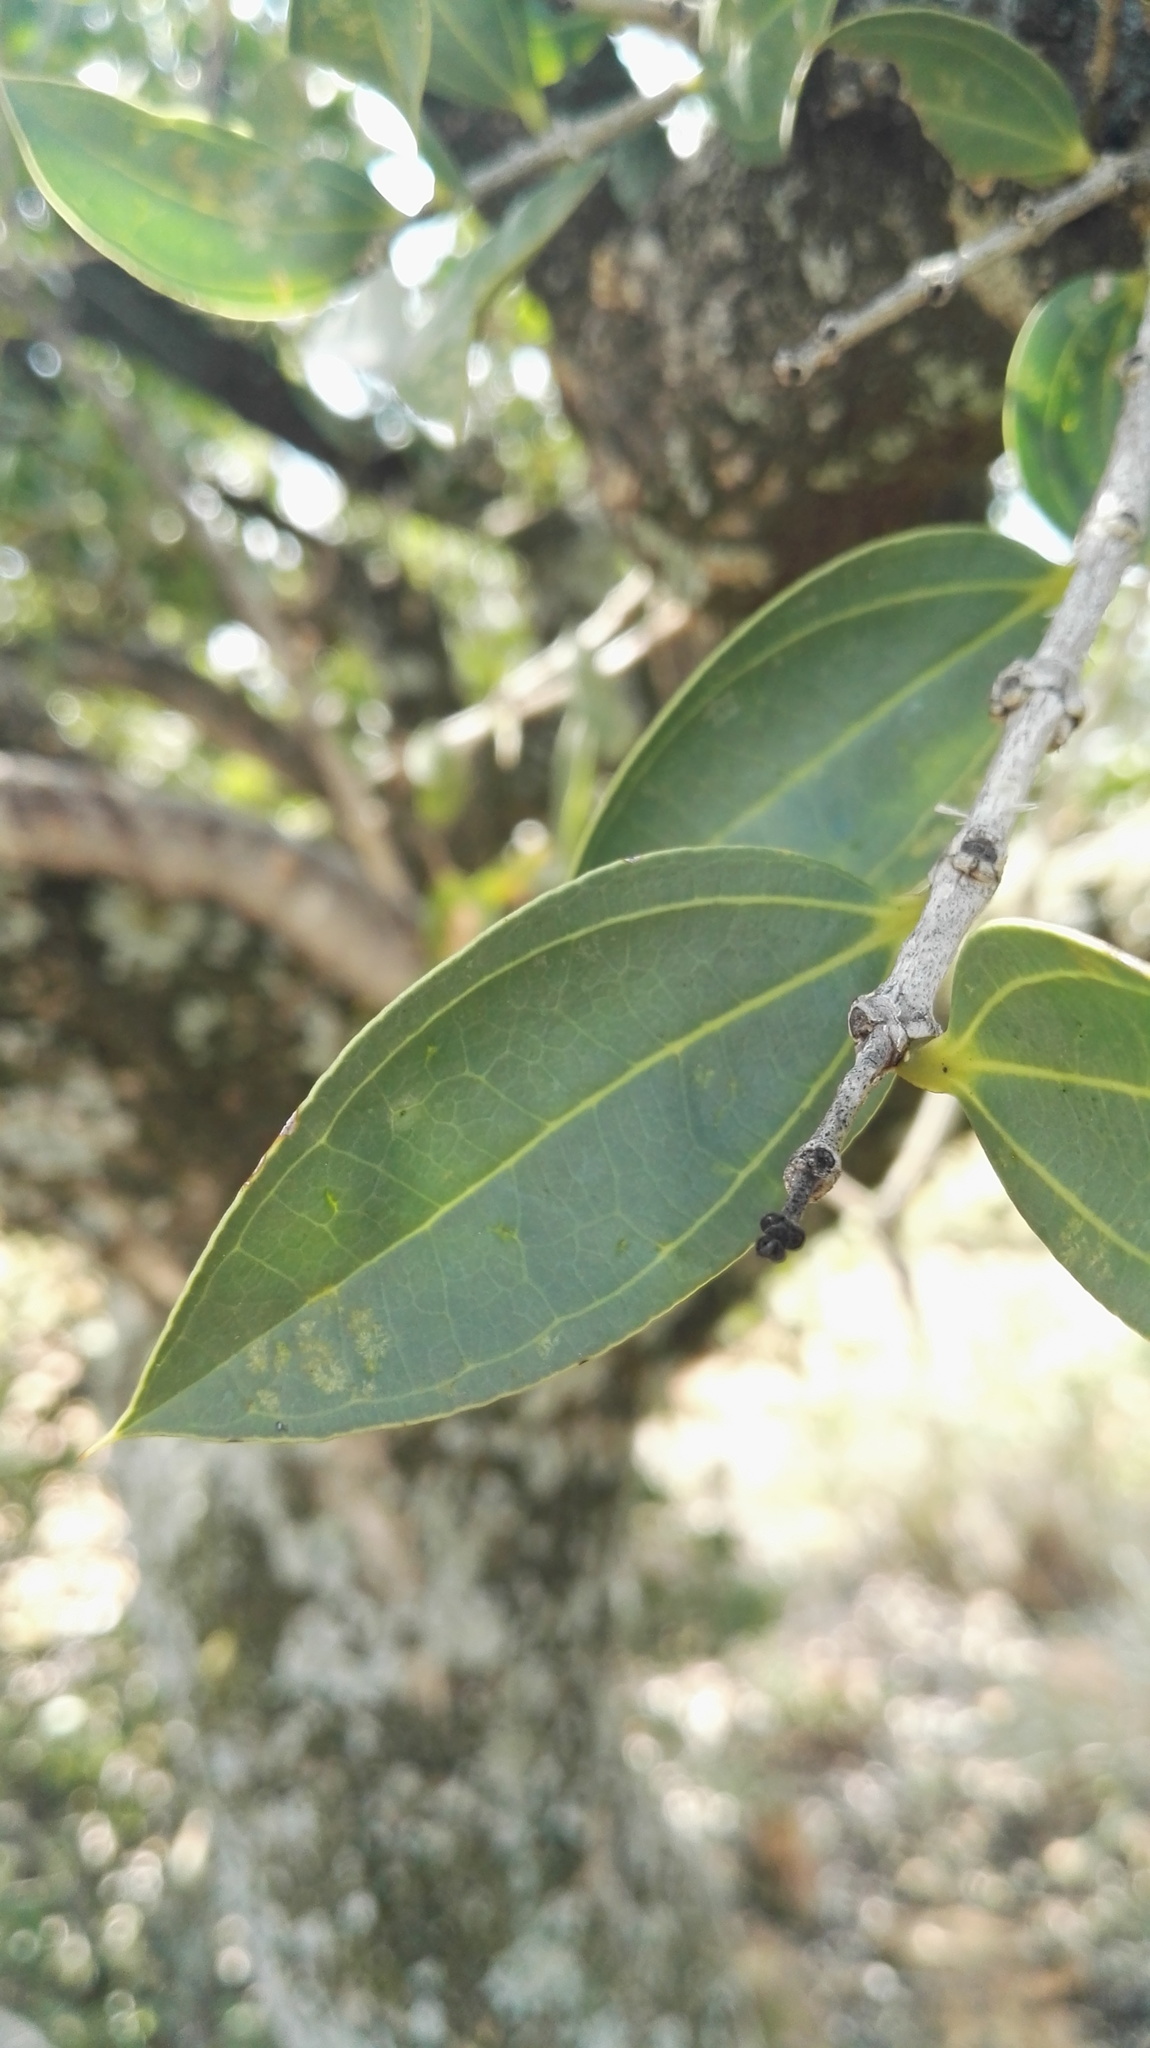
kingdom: Plantae
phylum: Tracheophyta
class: Magnoliopsida
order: Gentianales
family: Loganiaceae
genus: Strychnos
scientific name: Strychnos pungens
